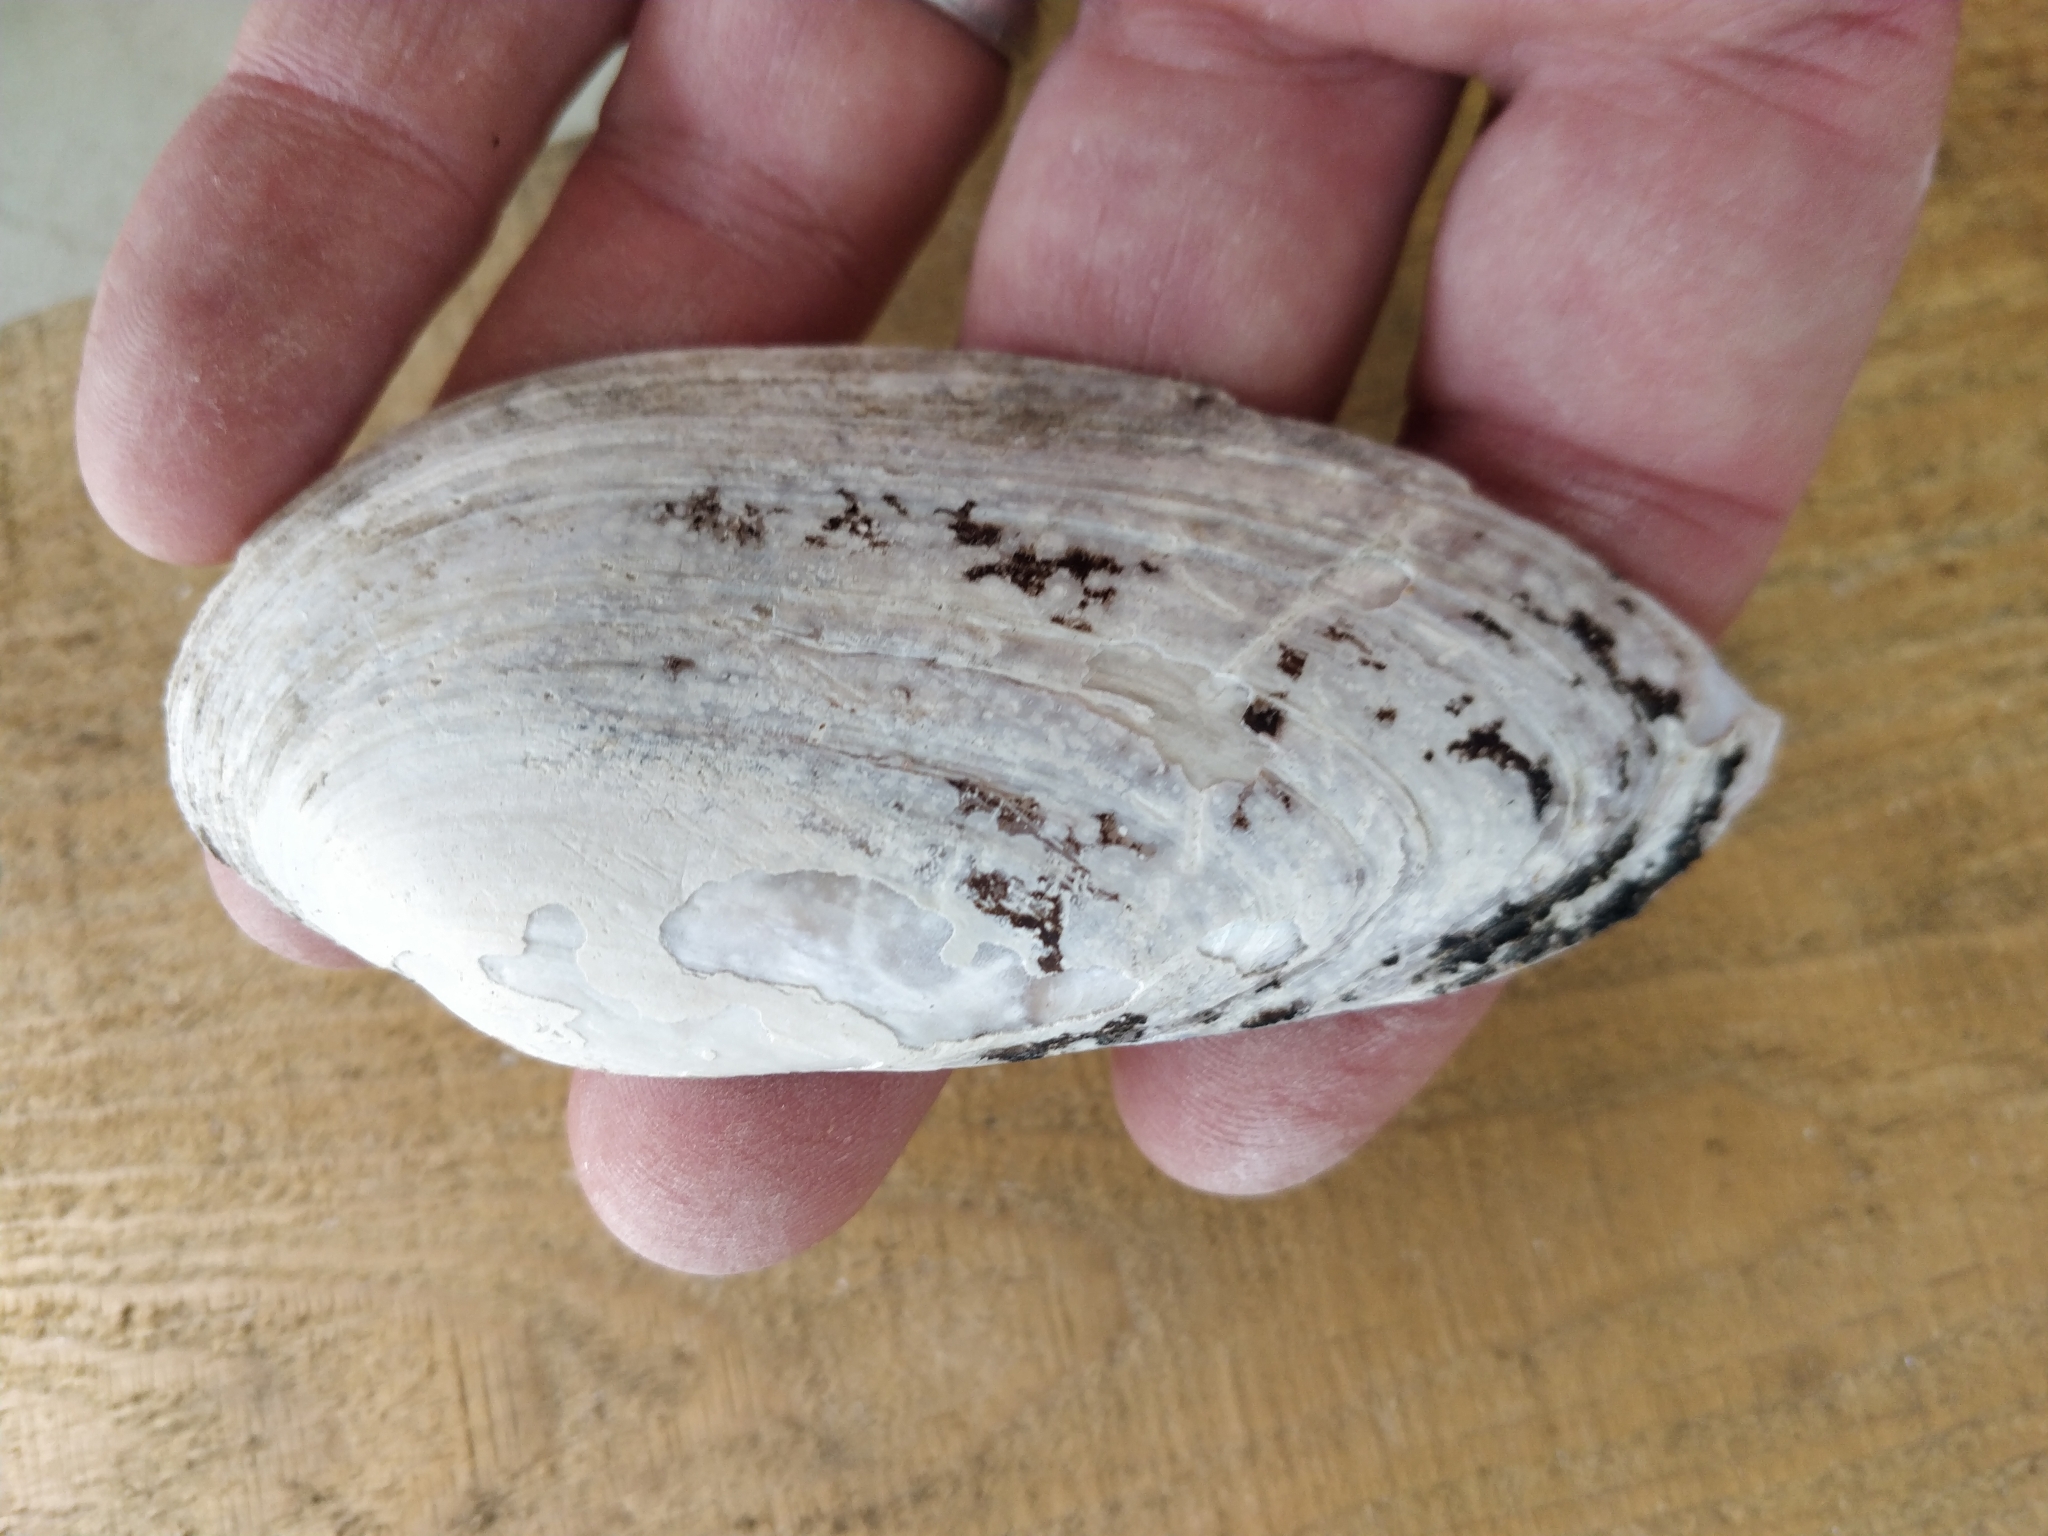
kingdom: Animalia
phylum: Mollusca
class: Bivalvia
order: Unionida
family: Unionidae
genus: Ligumia
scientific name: Ligumia recta
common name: Black sandshell
